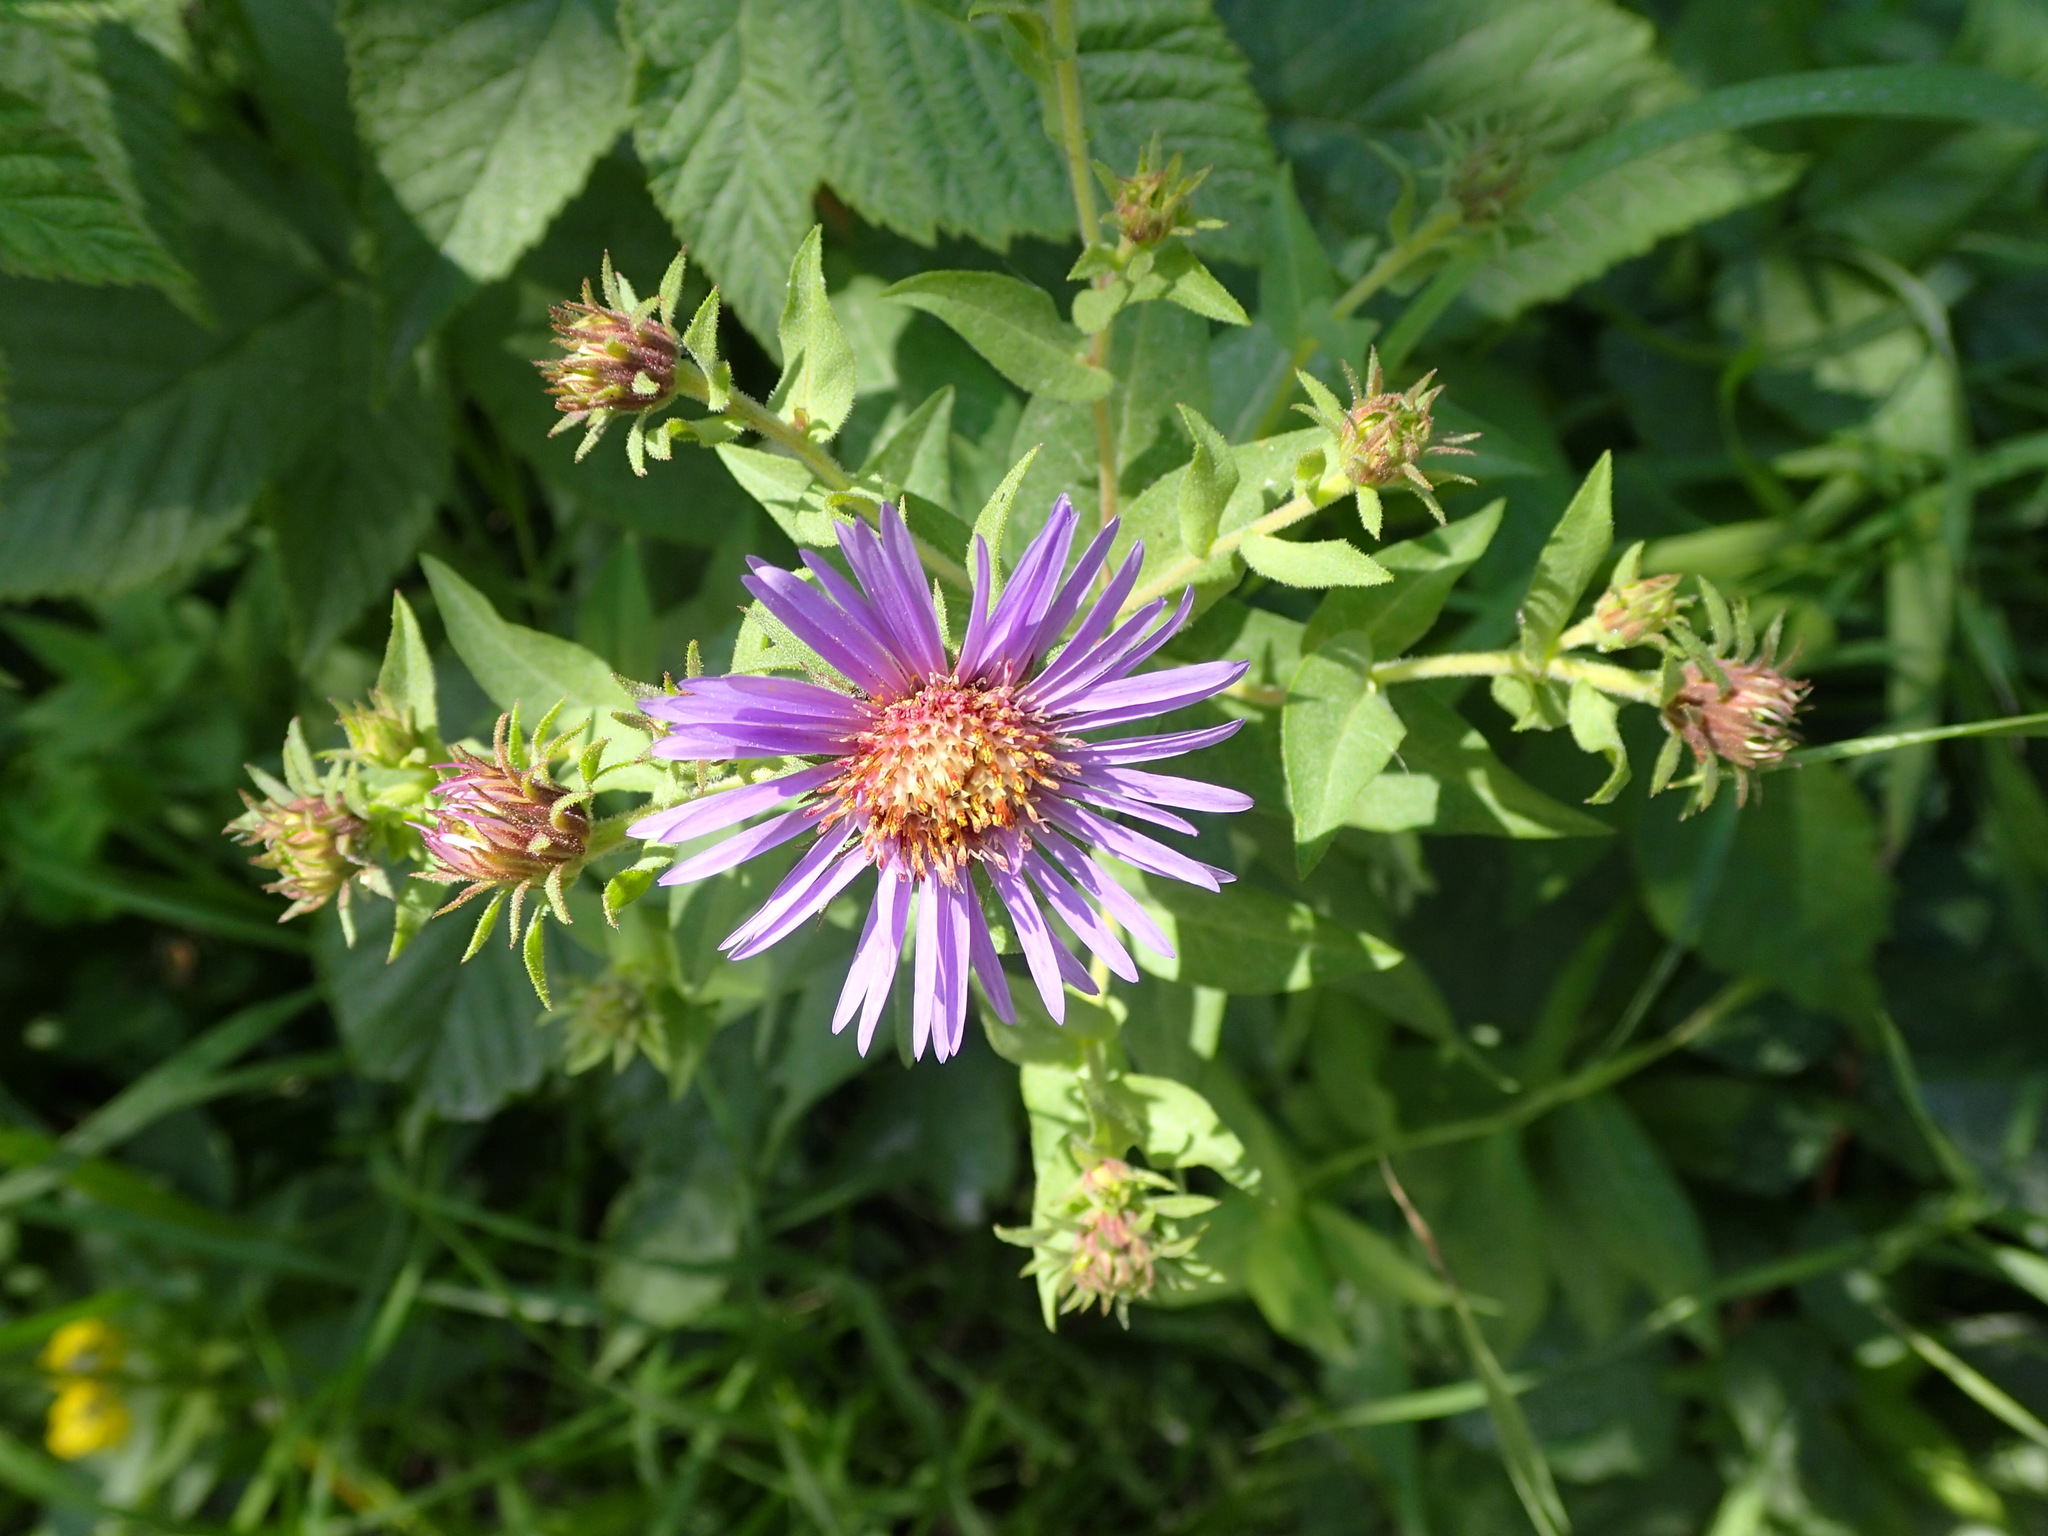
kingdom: Plantae
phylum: Tracheophyta
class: Magnoliopsida
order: Asterales
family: Asteraceae
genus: Canadanthus
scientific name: Canadanthus modestus
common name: Great northern aster
